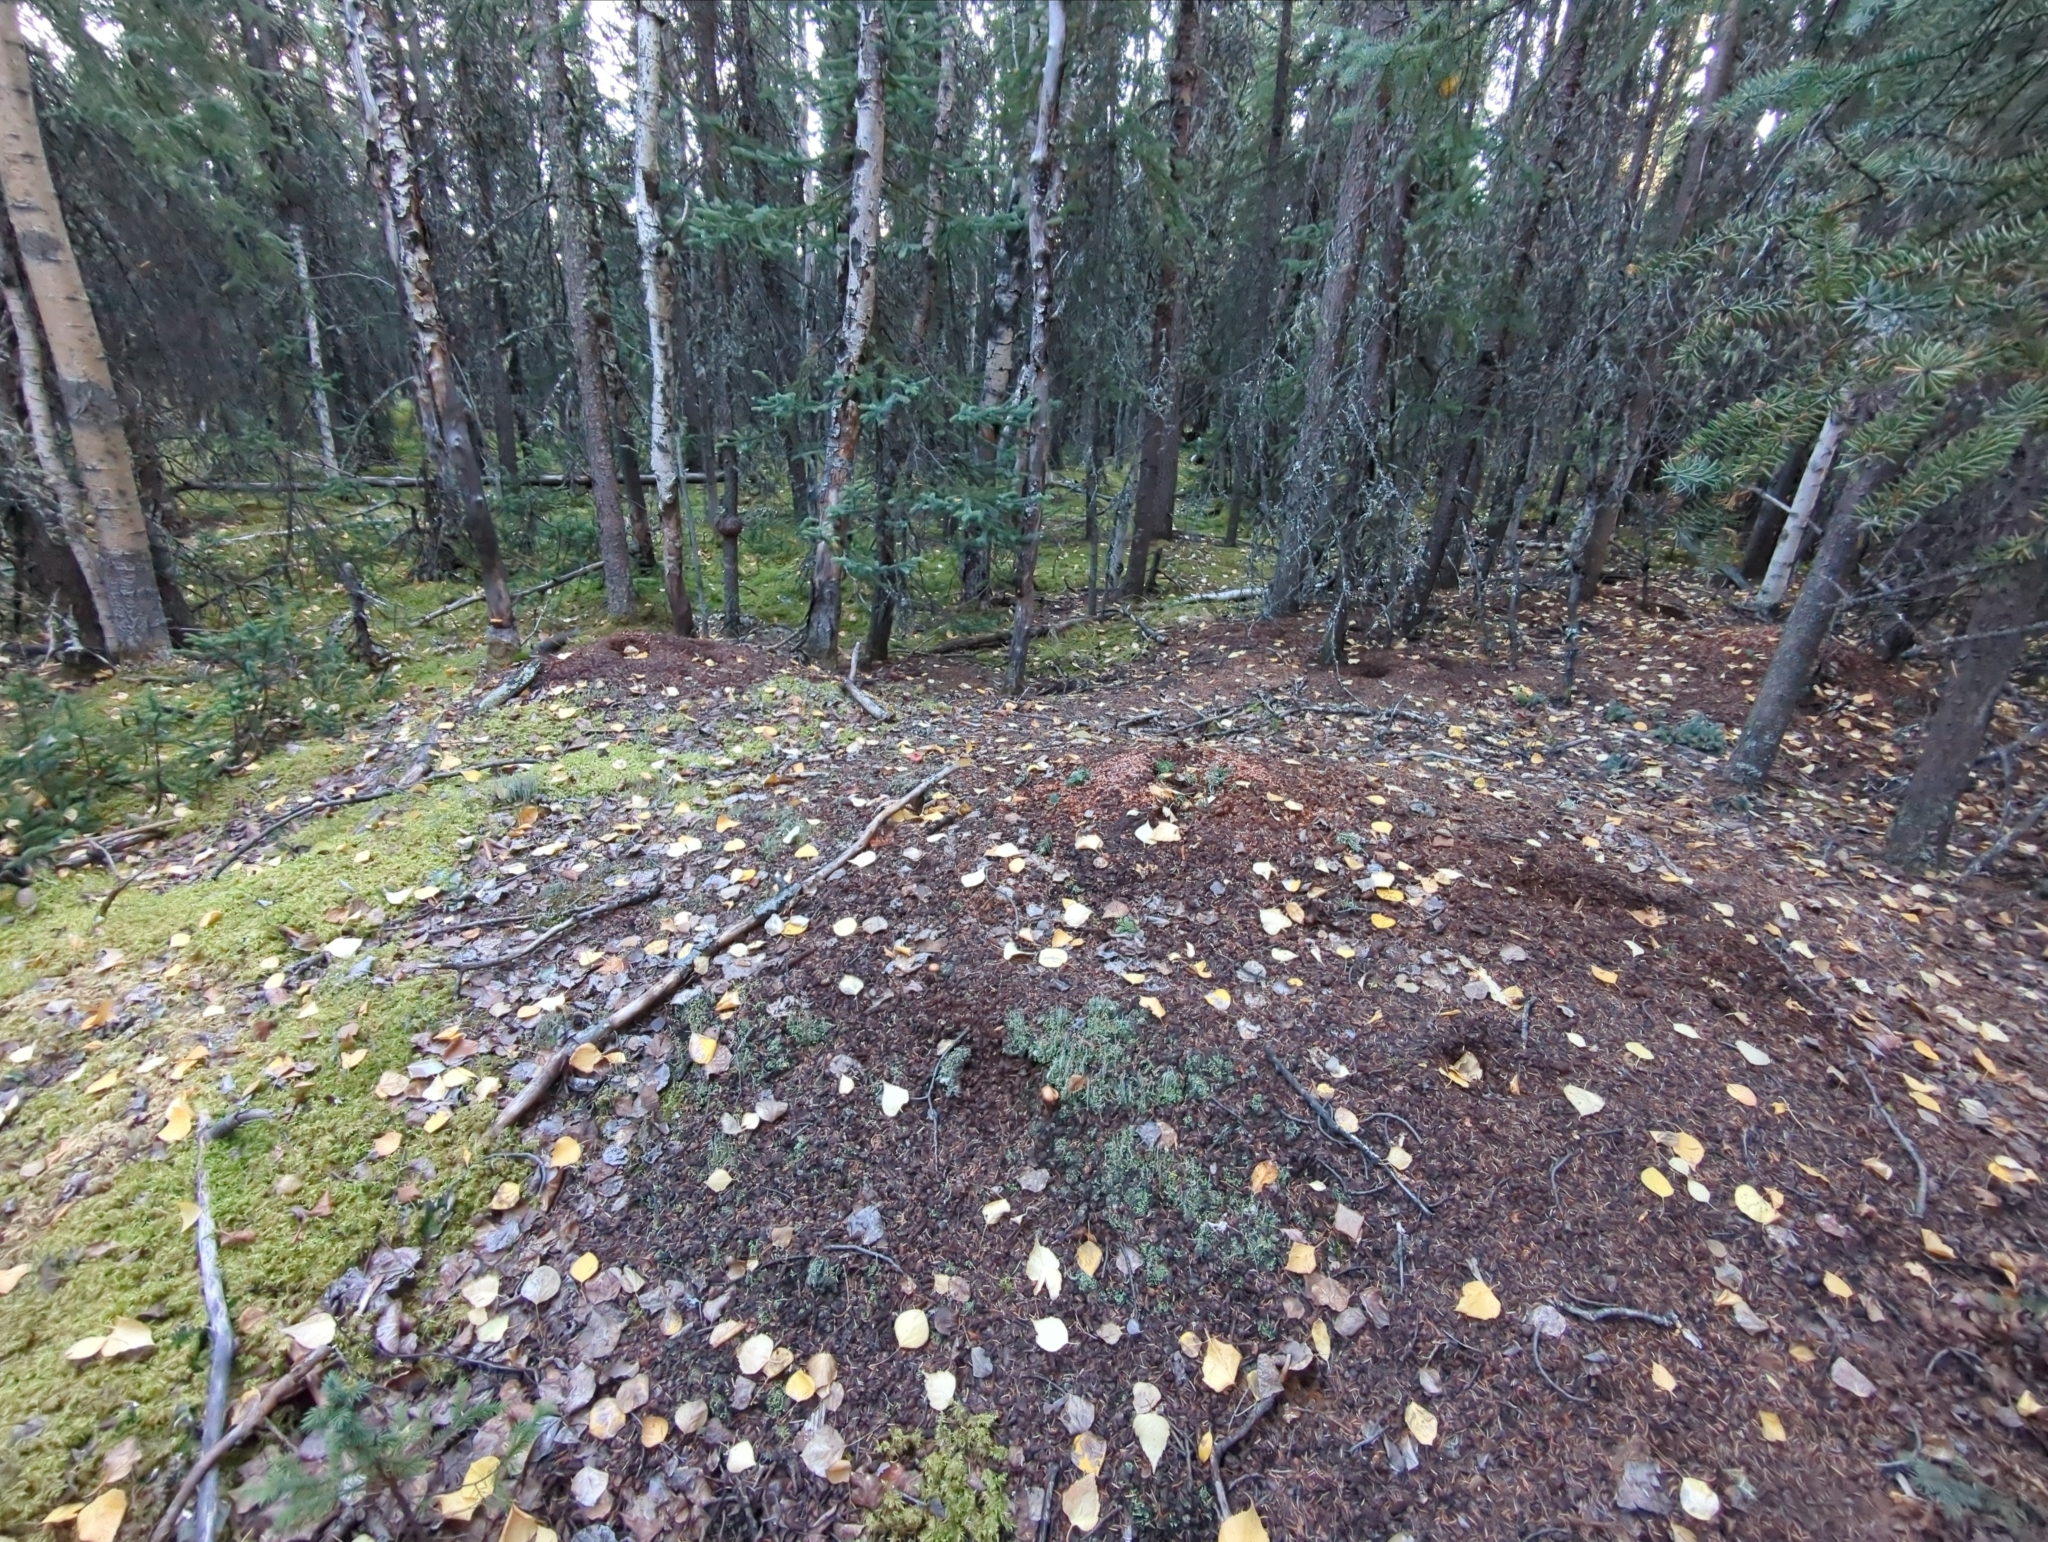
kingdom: Animalia
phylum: Chordata
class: Mammalia
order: Rodentia
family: Sciuridae
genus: Tamiasciurus
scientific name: Tamiasciurus hudsonicus
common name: Red squirrel
